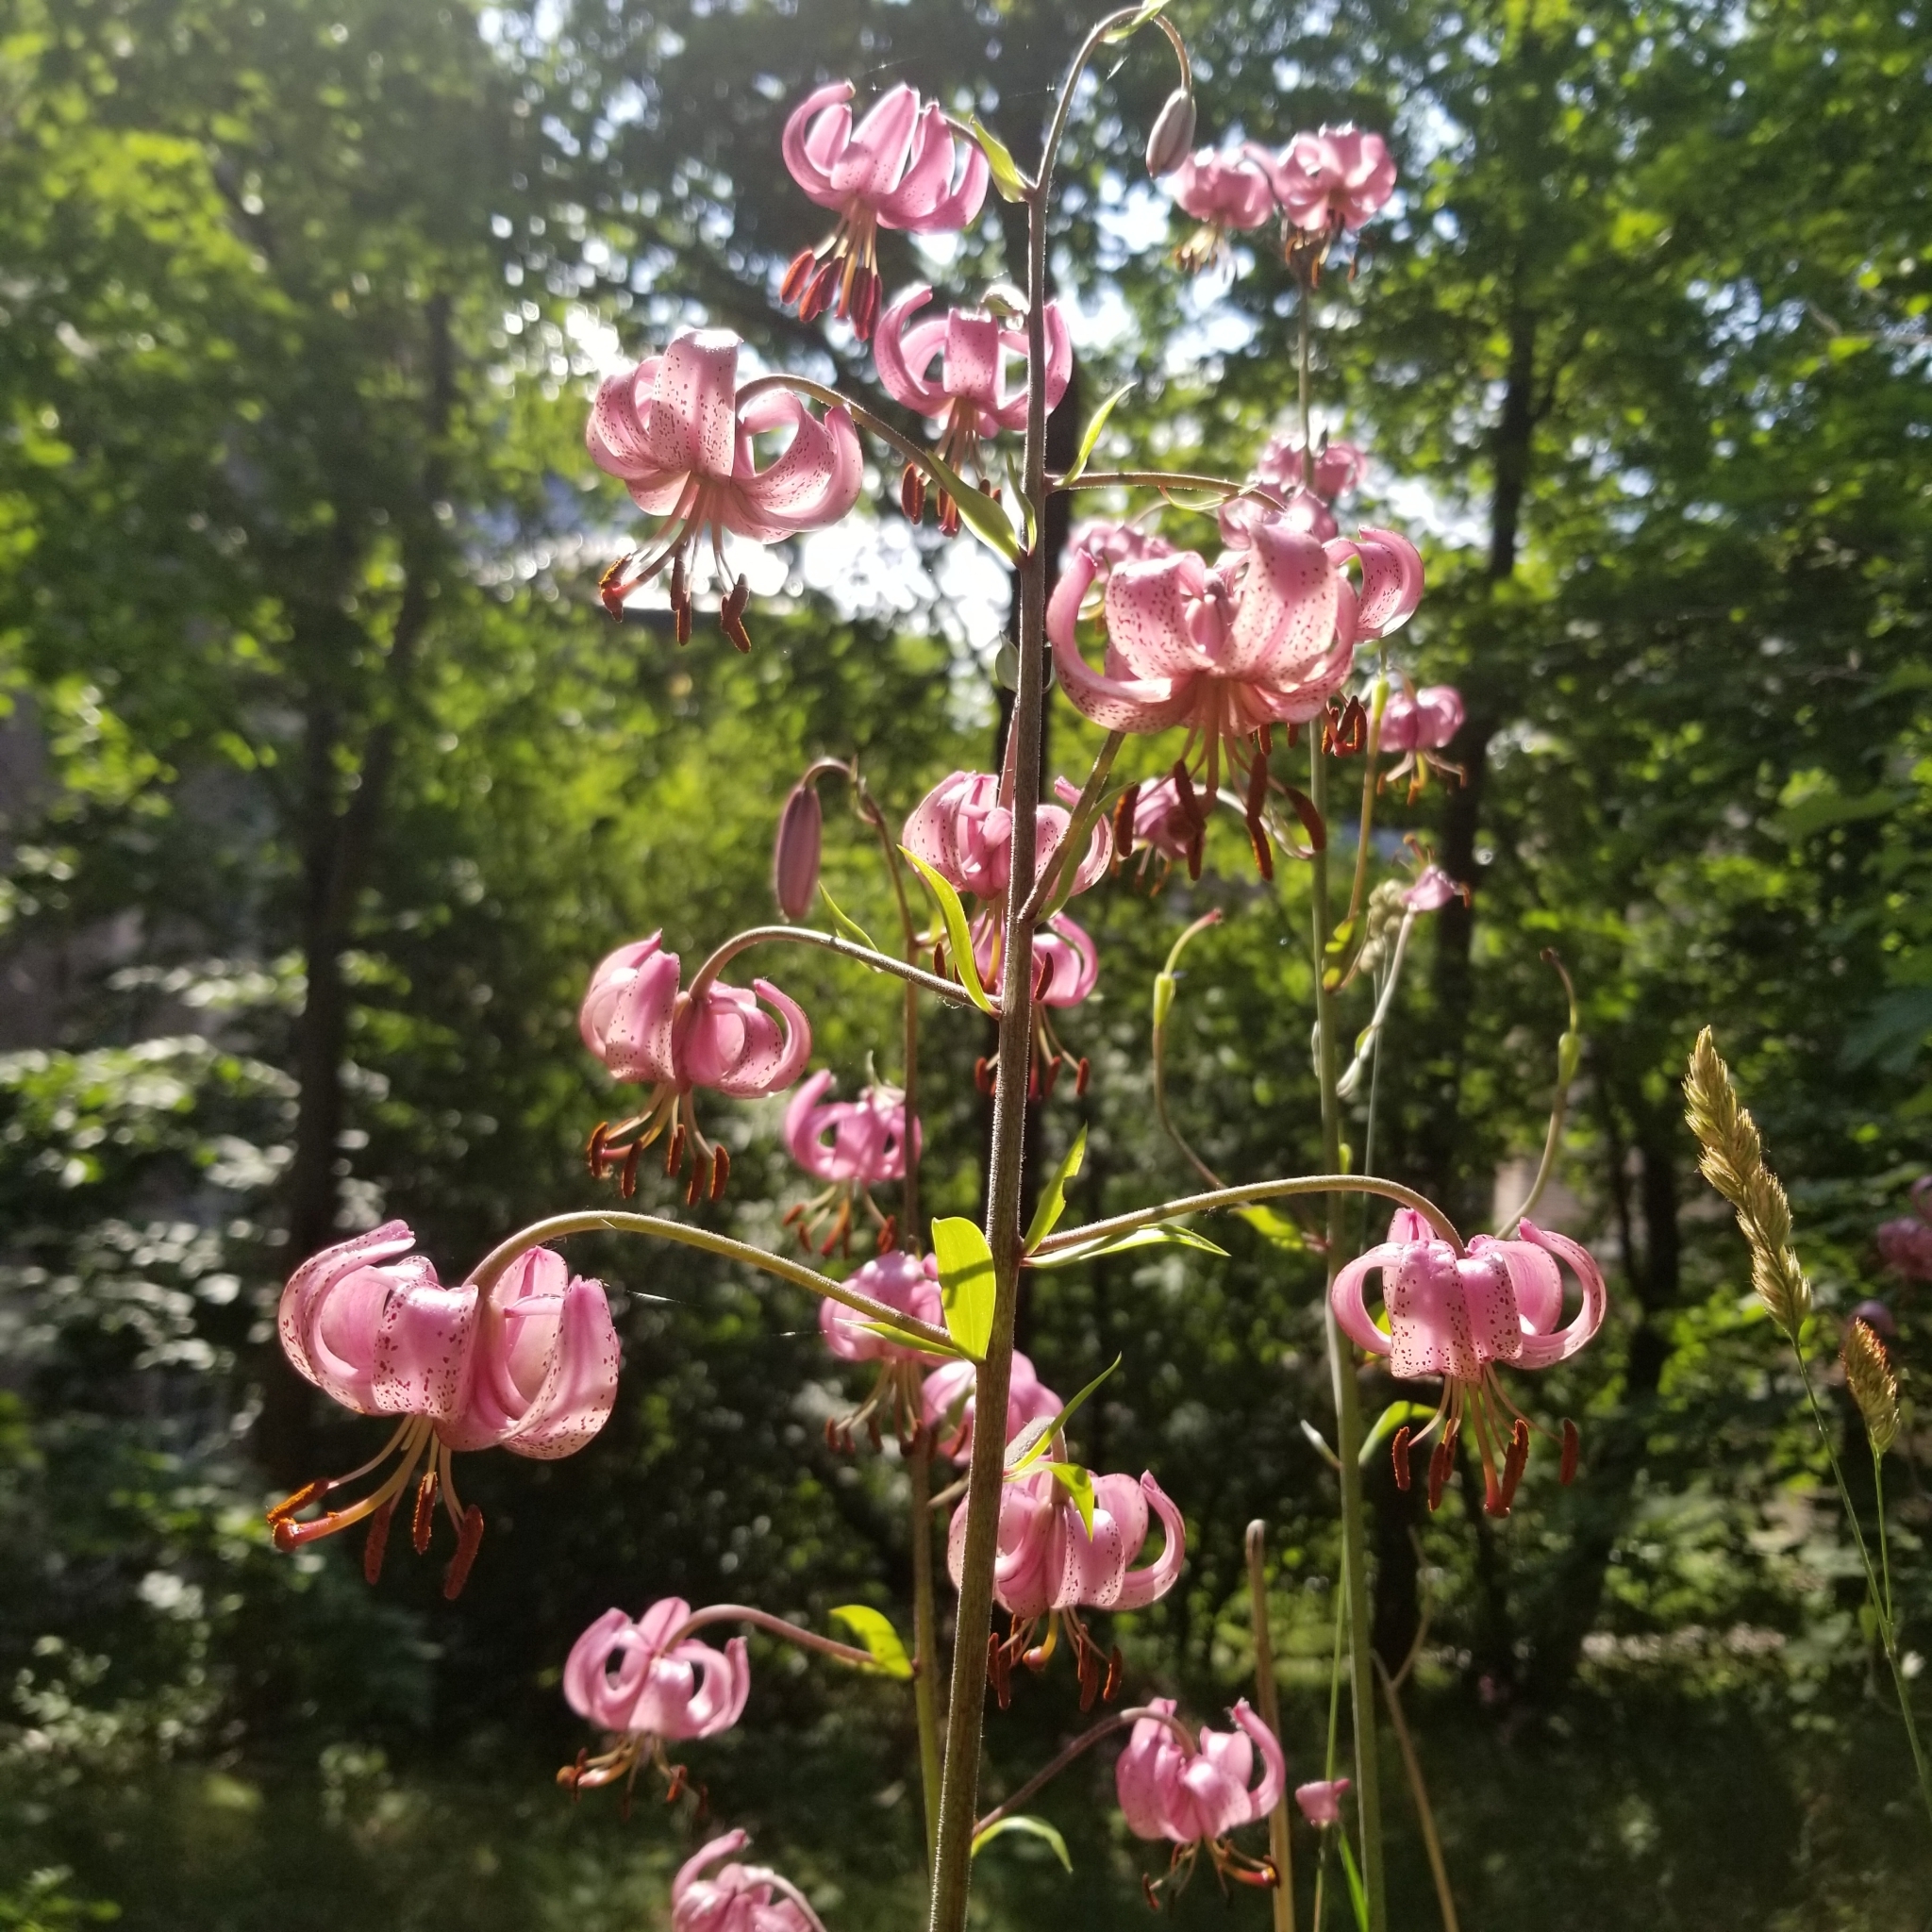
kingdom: Plantae
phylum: Tracheophyta
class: Liliopsida
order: Liliales
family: Liliaceae
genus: Lilium
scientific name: Lilium martagon
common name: Martagon lily
